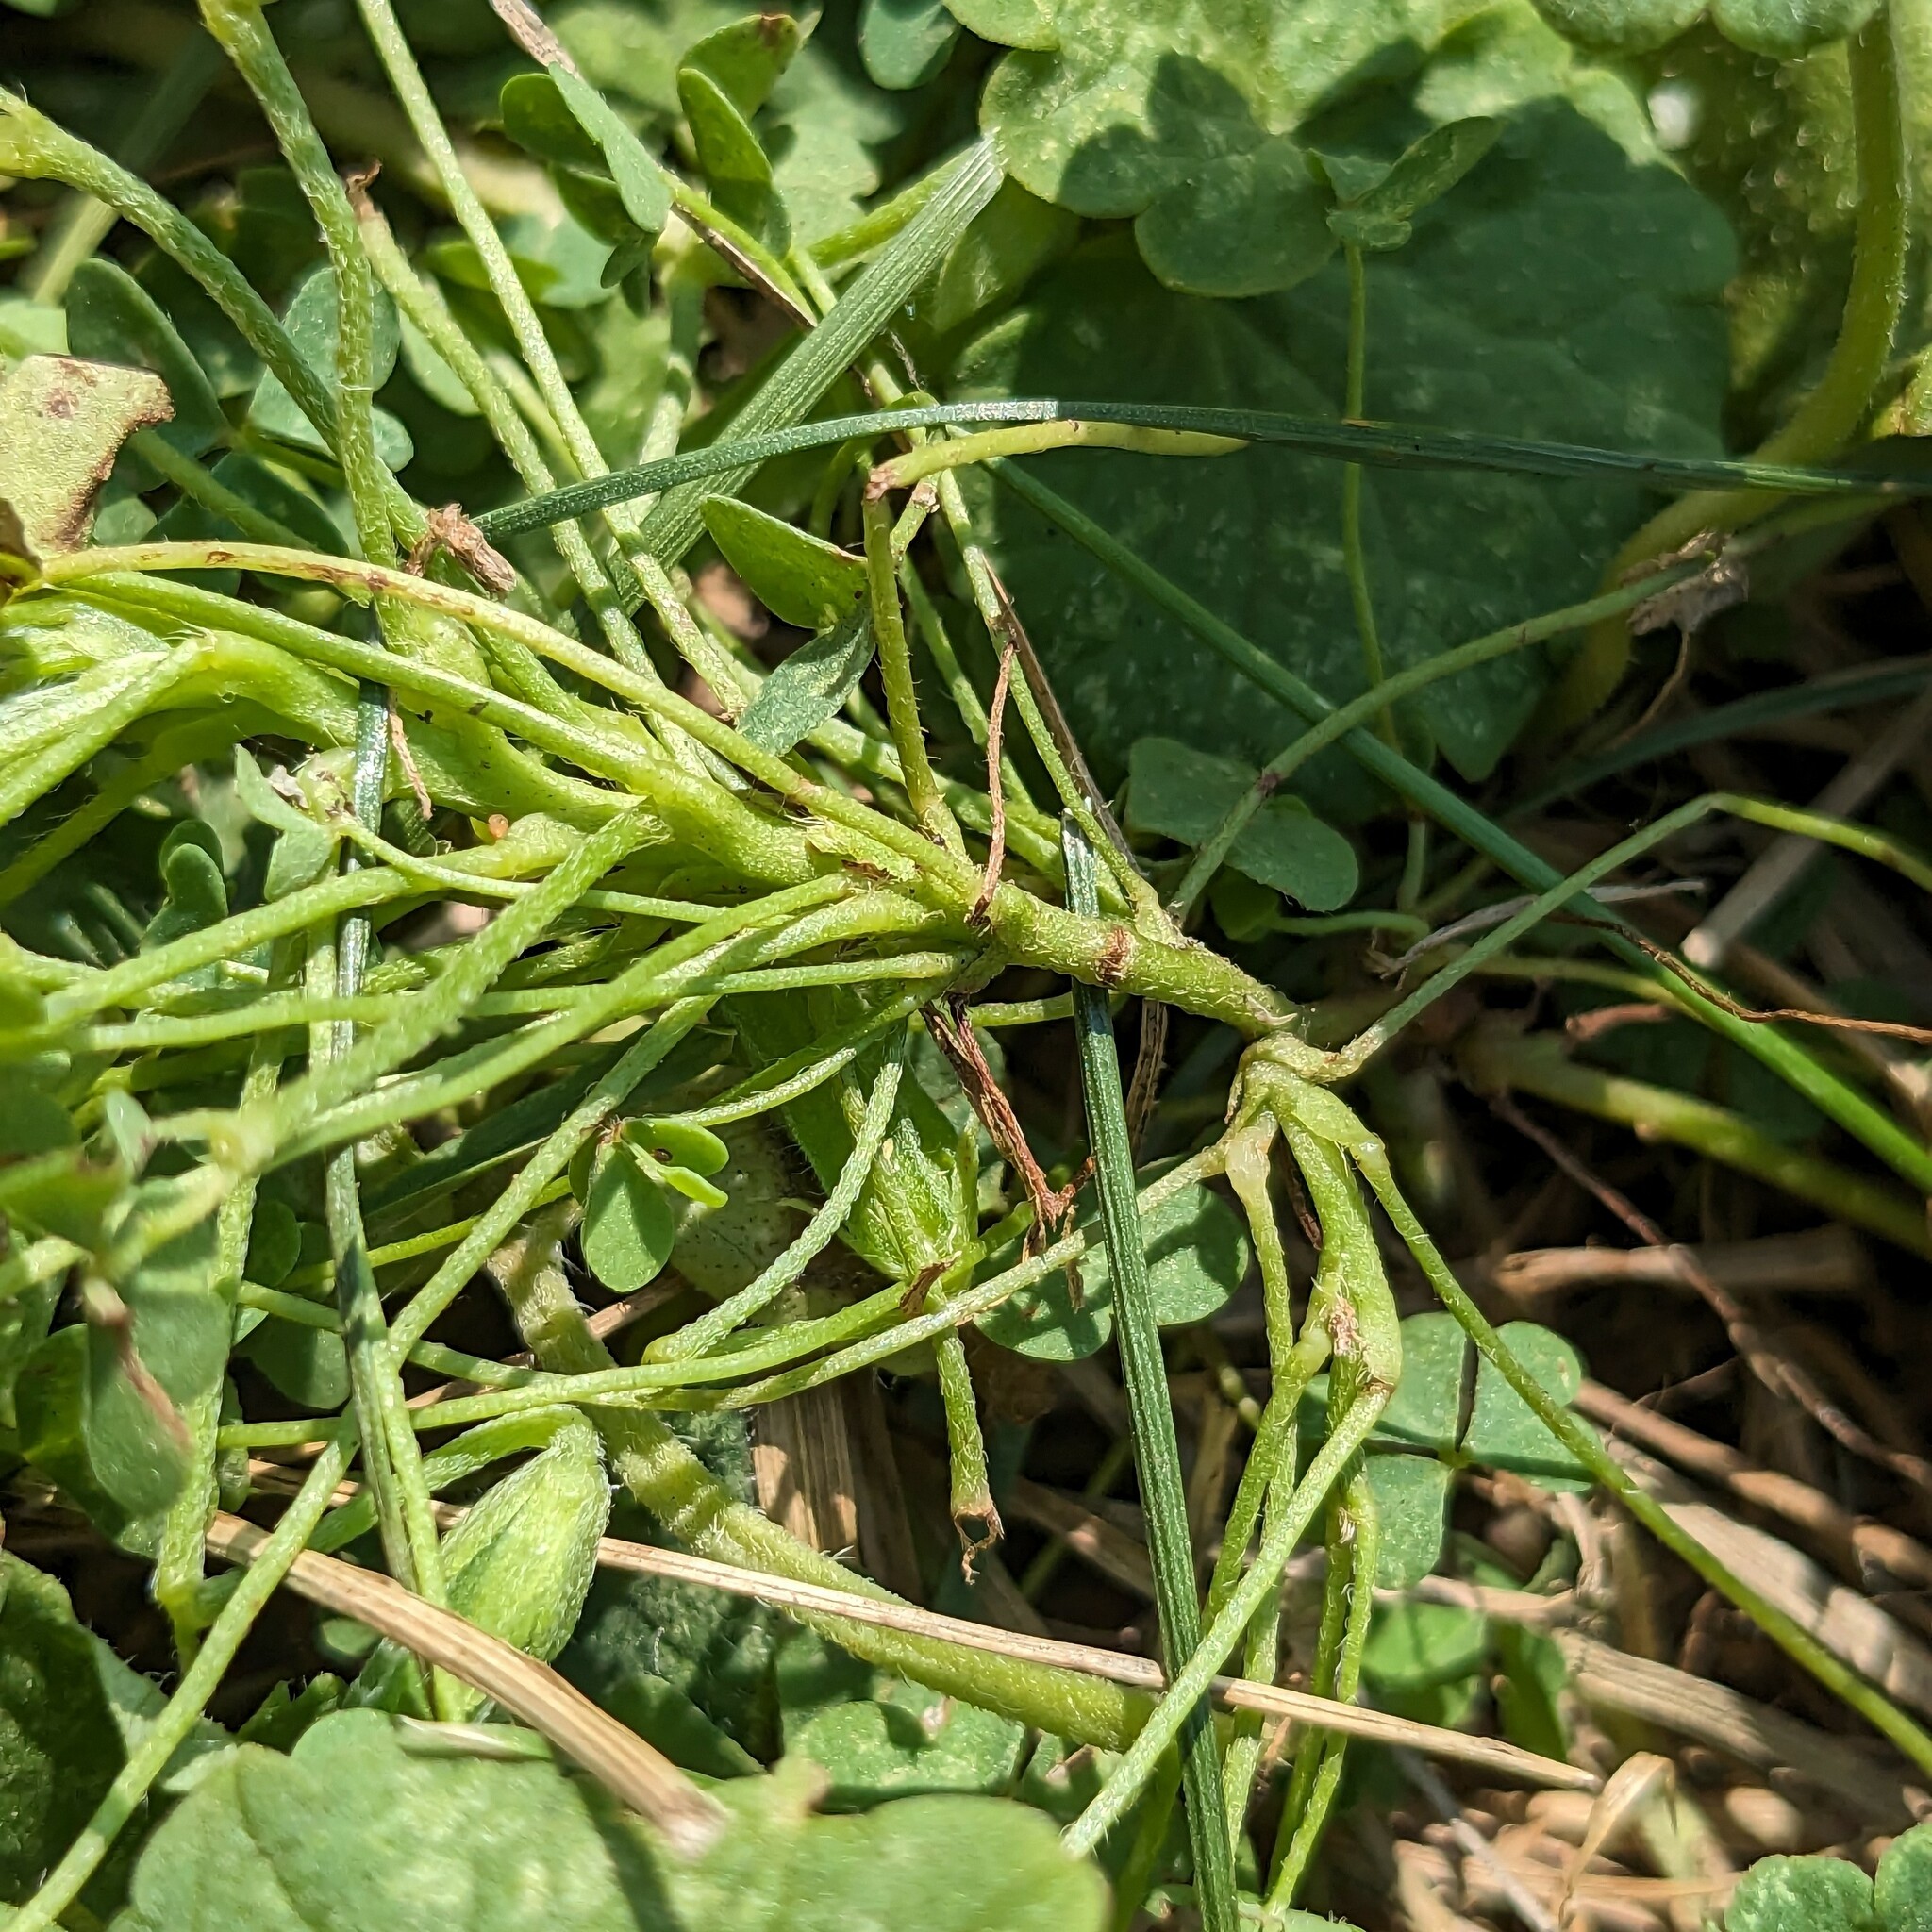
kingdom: Plantae
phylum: Tracheophyta
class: Magnoliopsida
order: Oxalidales
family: Oxalidaceae
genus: Oxalis
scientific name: Oxalis dillenii
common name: Sussex yellow-sorrel
